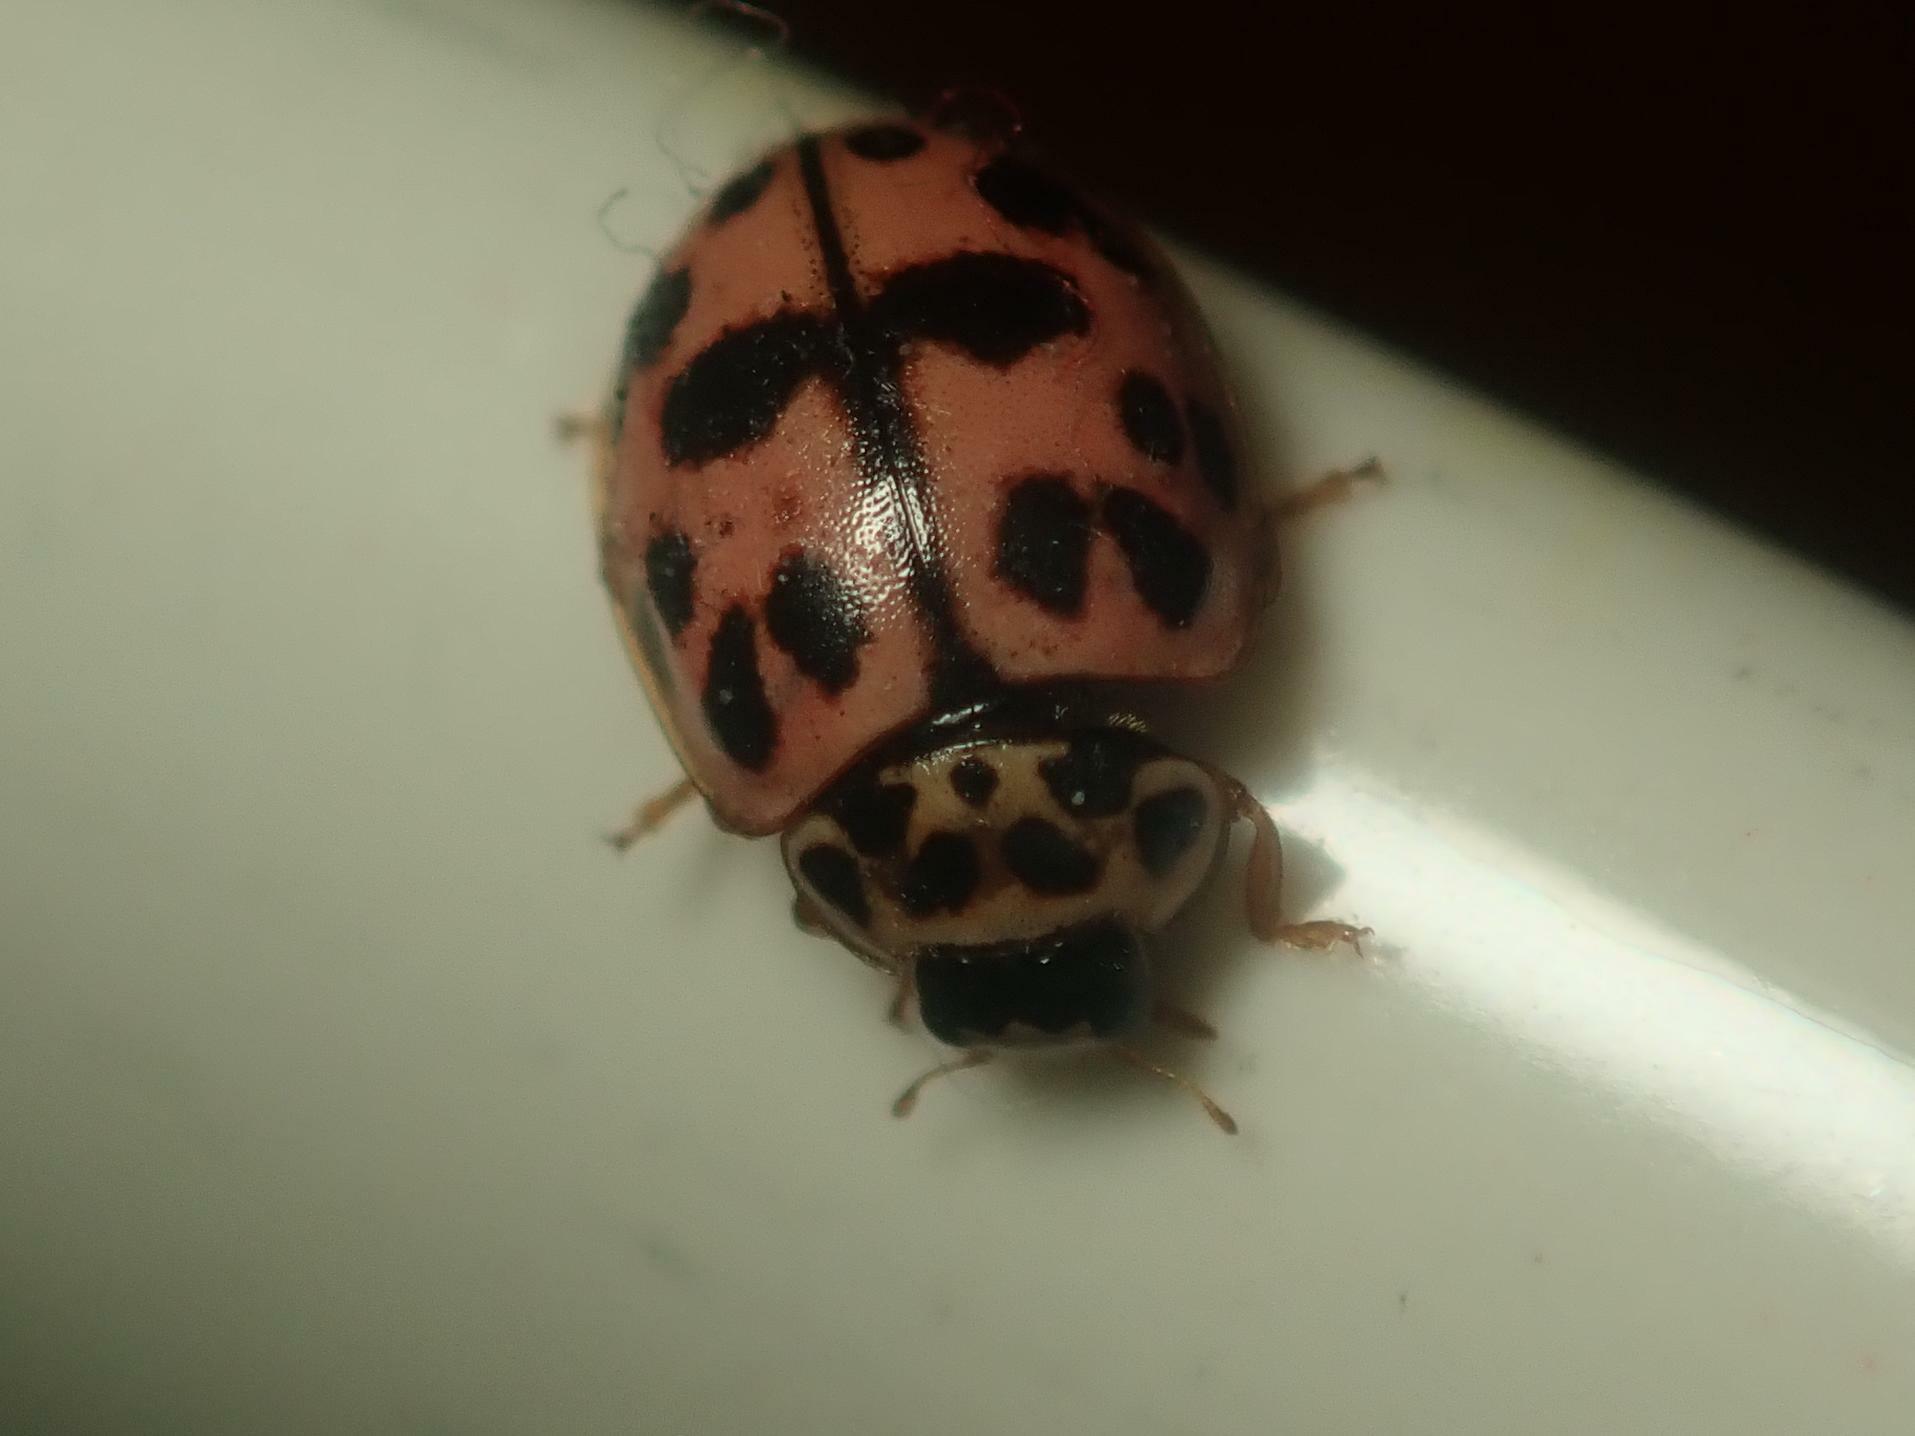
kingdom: Animalia
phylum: Arthropoda
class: Insecta
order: Coleoptera
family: Coccinellidae
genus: Oenopia
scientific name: Oenopia conglobata
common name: Ladybird beetle
